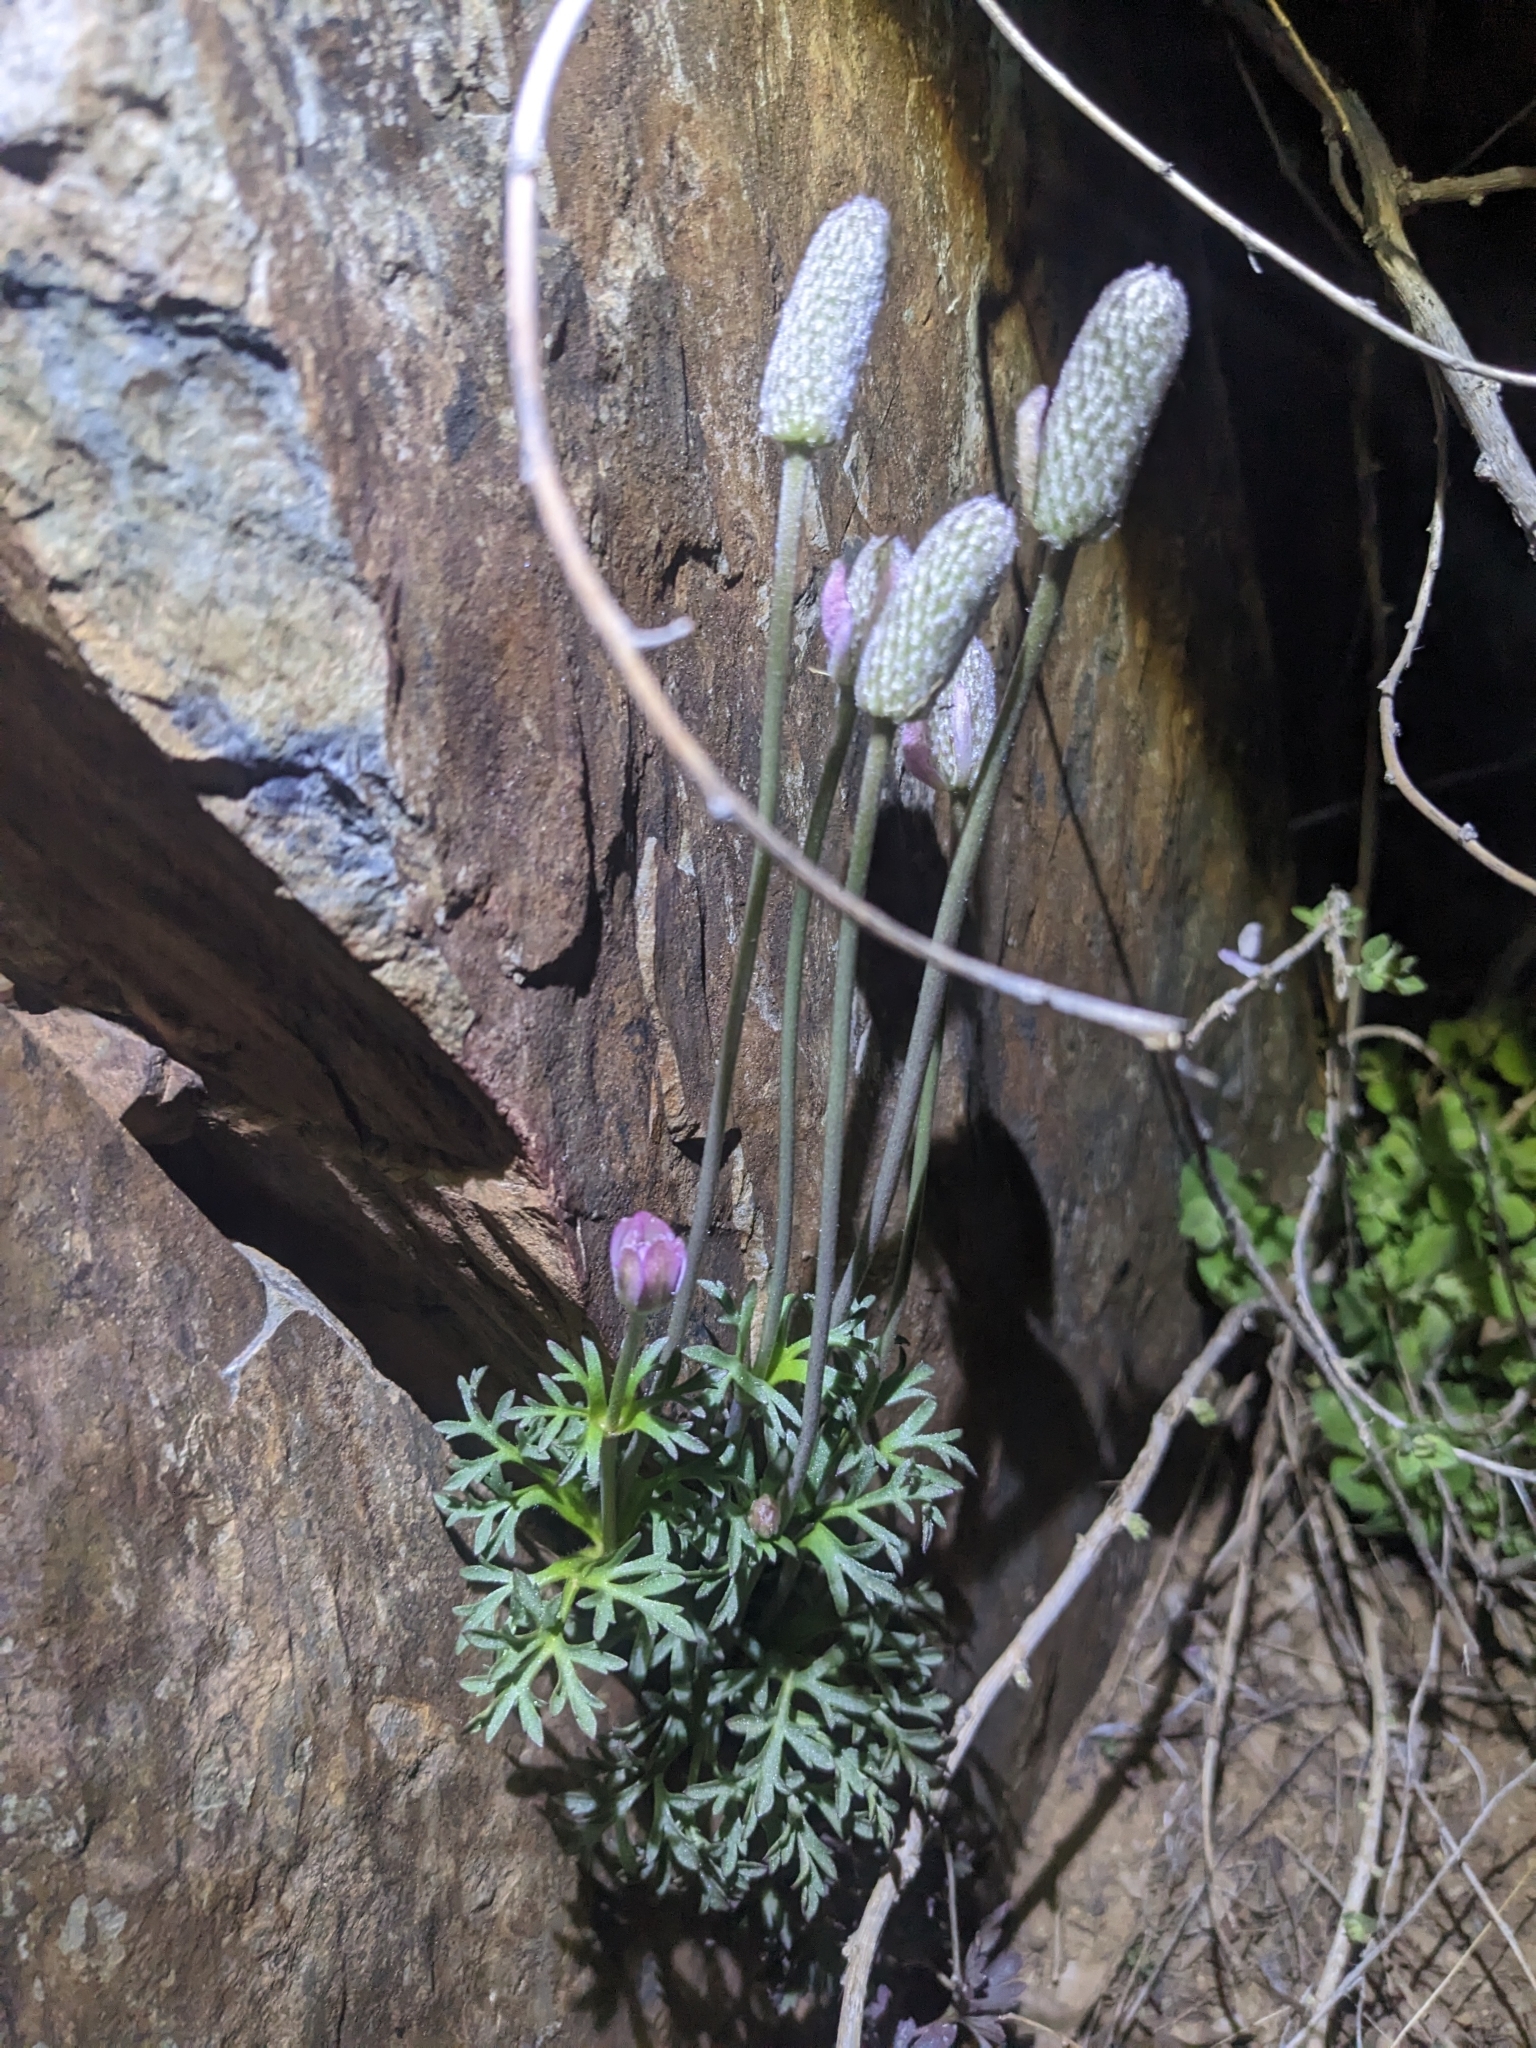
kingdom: Plantae
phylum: Tracheophyta
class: Magnoliopsida
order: Ranunculales
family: Ranunculaceae
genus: Anemone
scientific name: Anemone tuberosa
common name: Desert anemone
